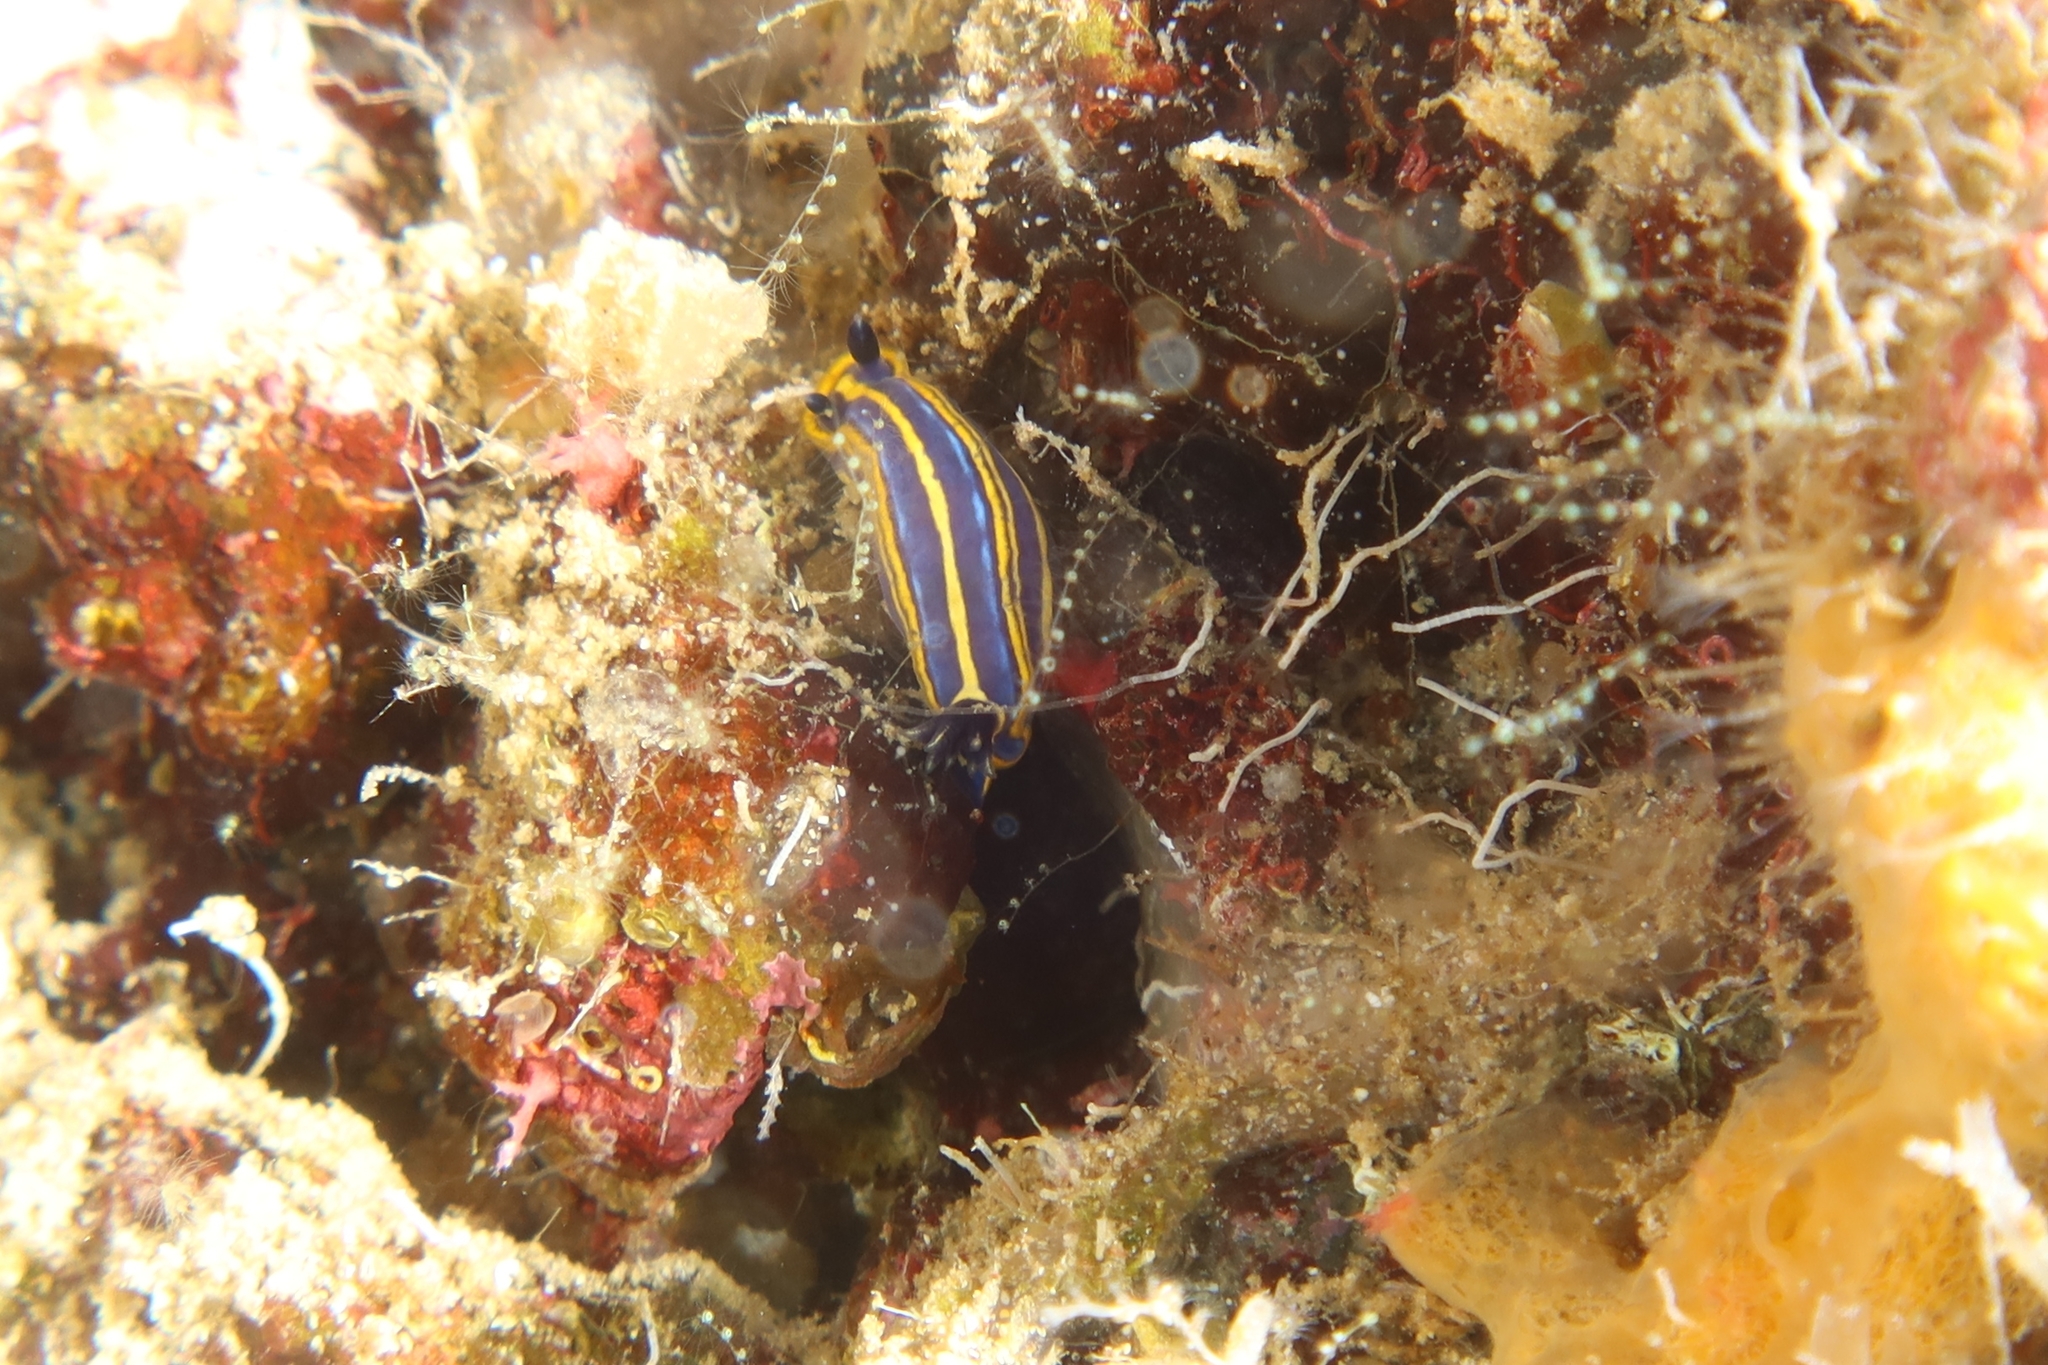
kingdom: Animalia
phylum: Mollusca
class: Gastropoda
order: Nudibranchia
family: Chromodorididae
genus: Felimare
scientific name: Felimare tricolor
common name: Tricolor doris
